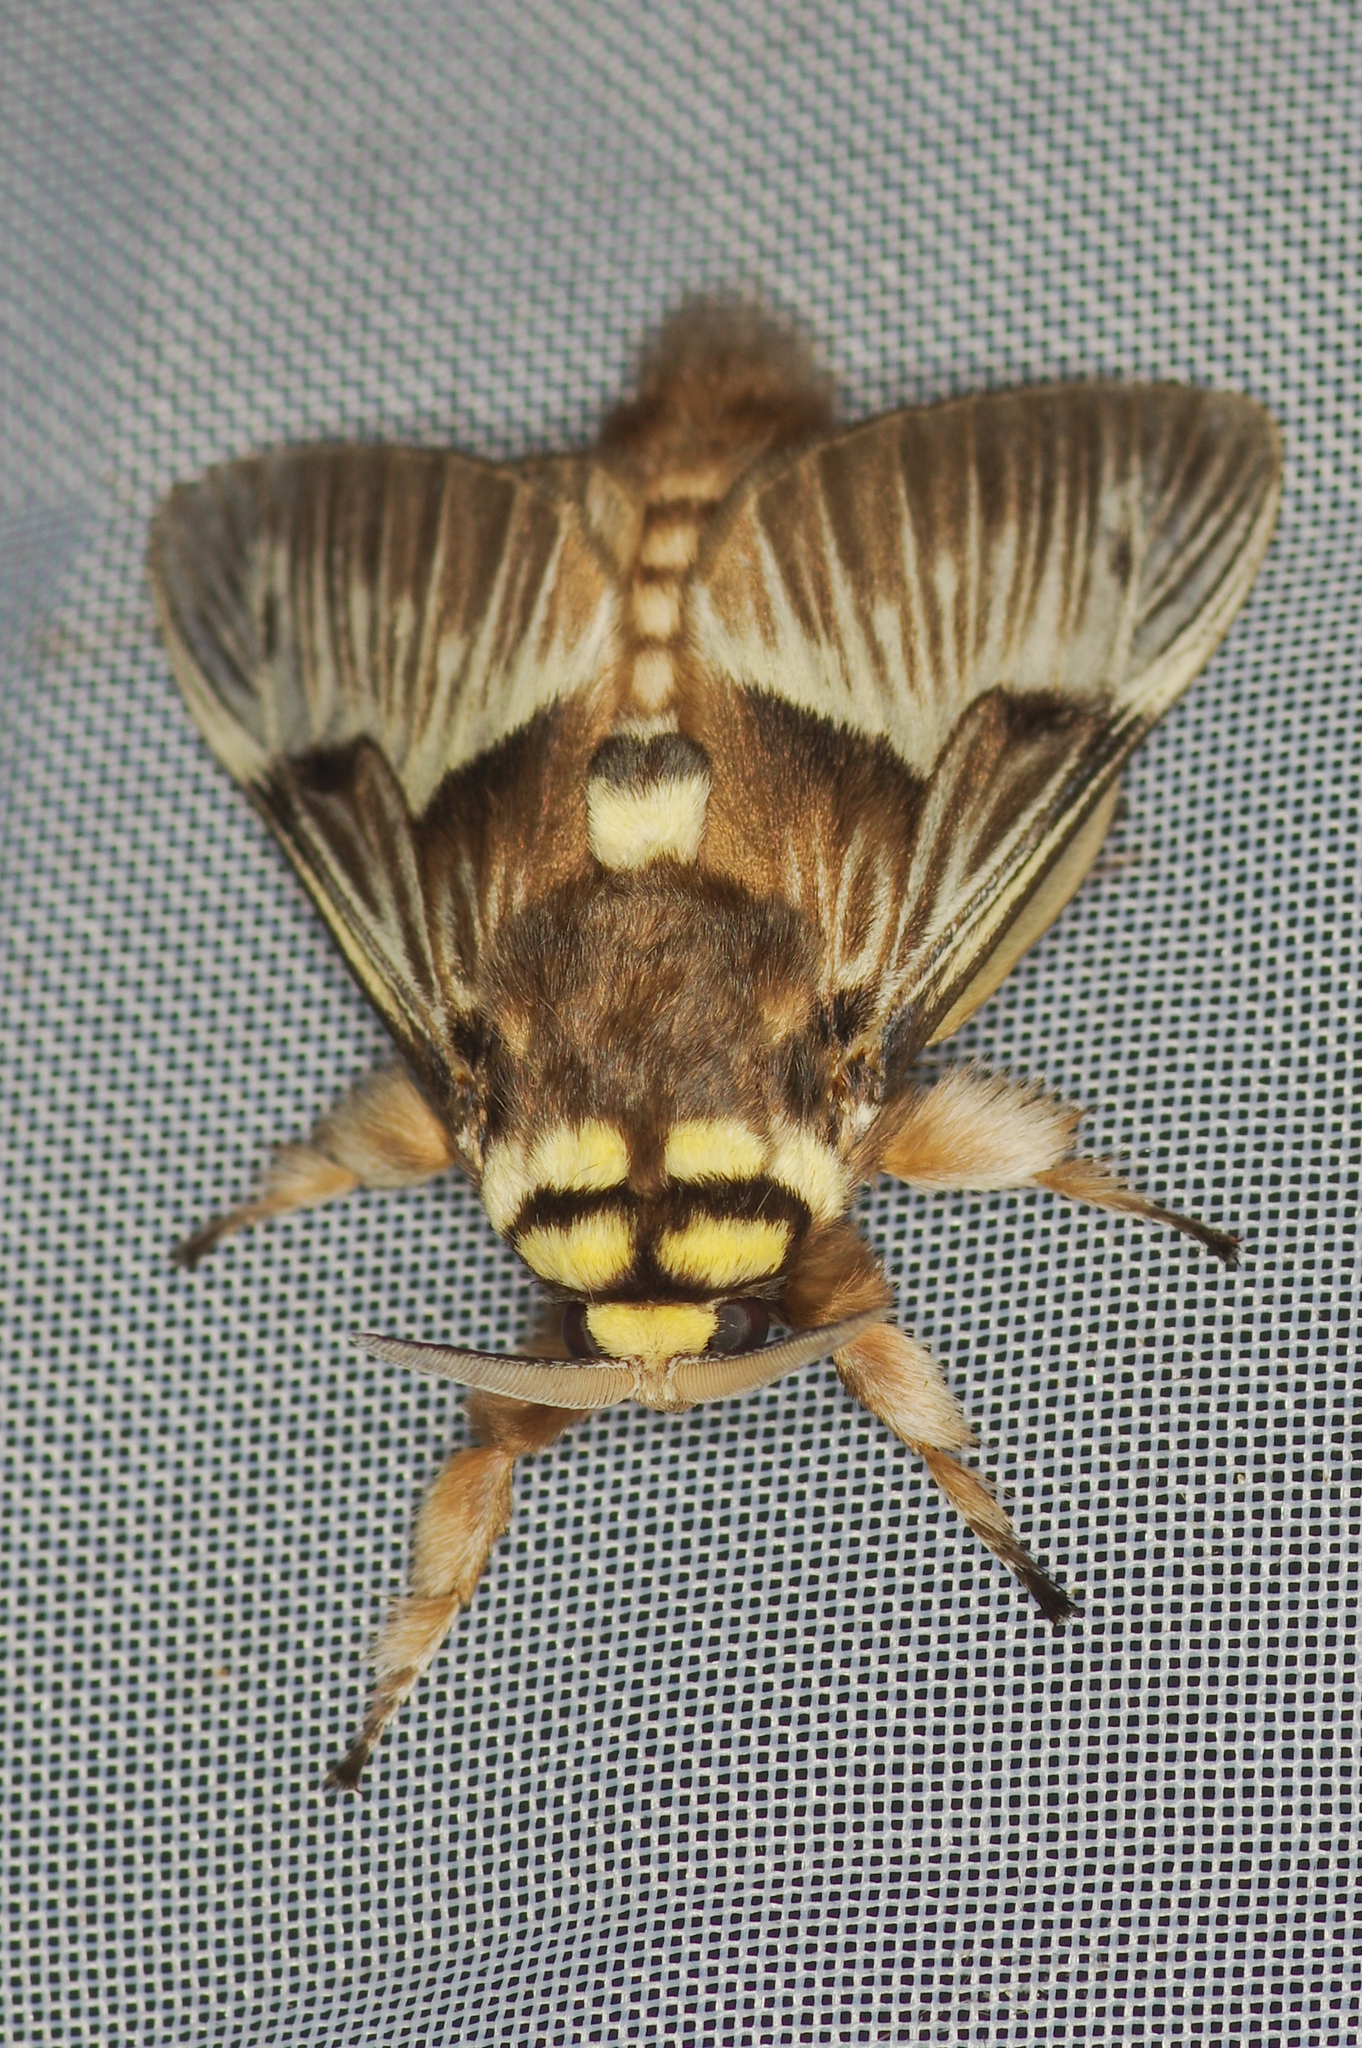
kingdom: Animalia
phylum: Arthropoda
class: Insecta
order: Lepidoptera
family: Megalopygidae
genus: Megalopyge
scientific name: Megalopyge tharops
